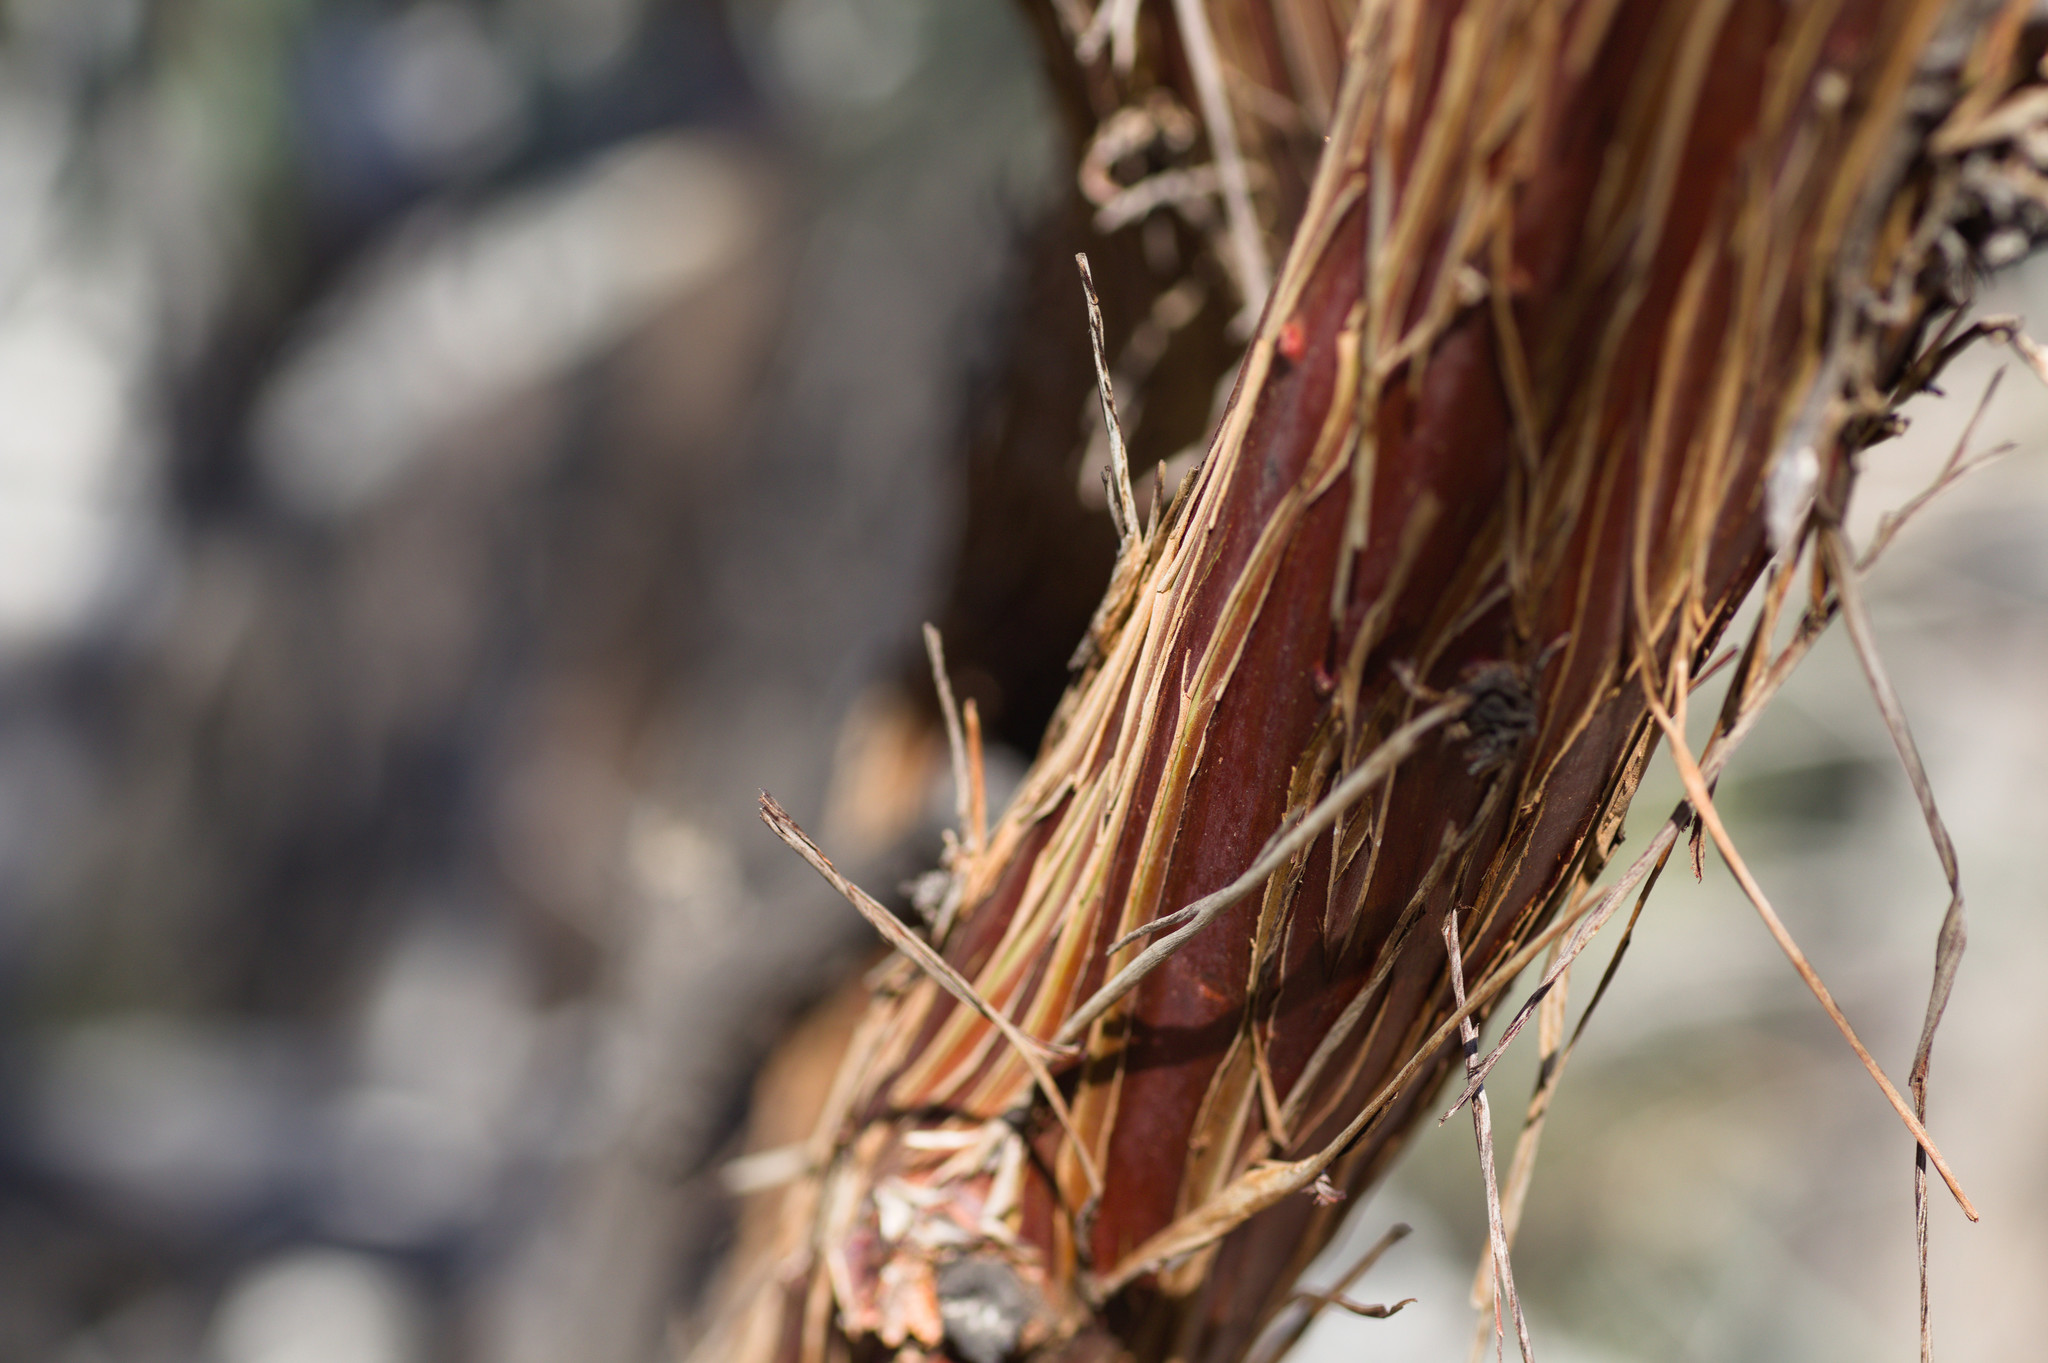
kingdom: Plantae
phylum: Tracheophyta
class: Magnoliopsida
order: Myrtales
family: Myrtaceae
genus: Eucalyptus
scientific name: Eucalyptus crucis
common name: Southern cross silver mallee
